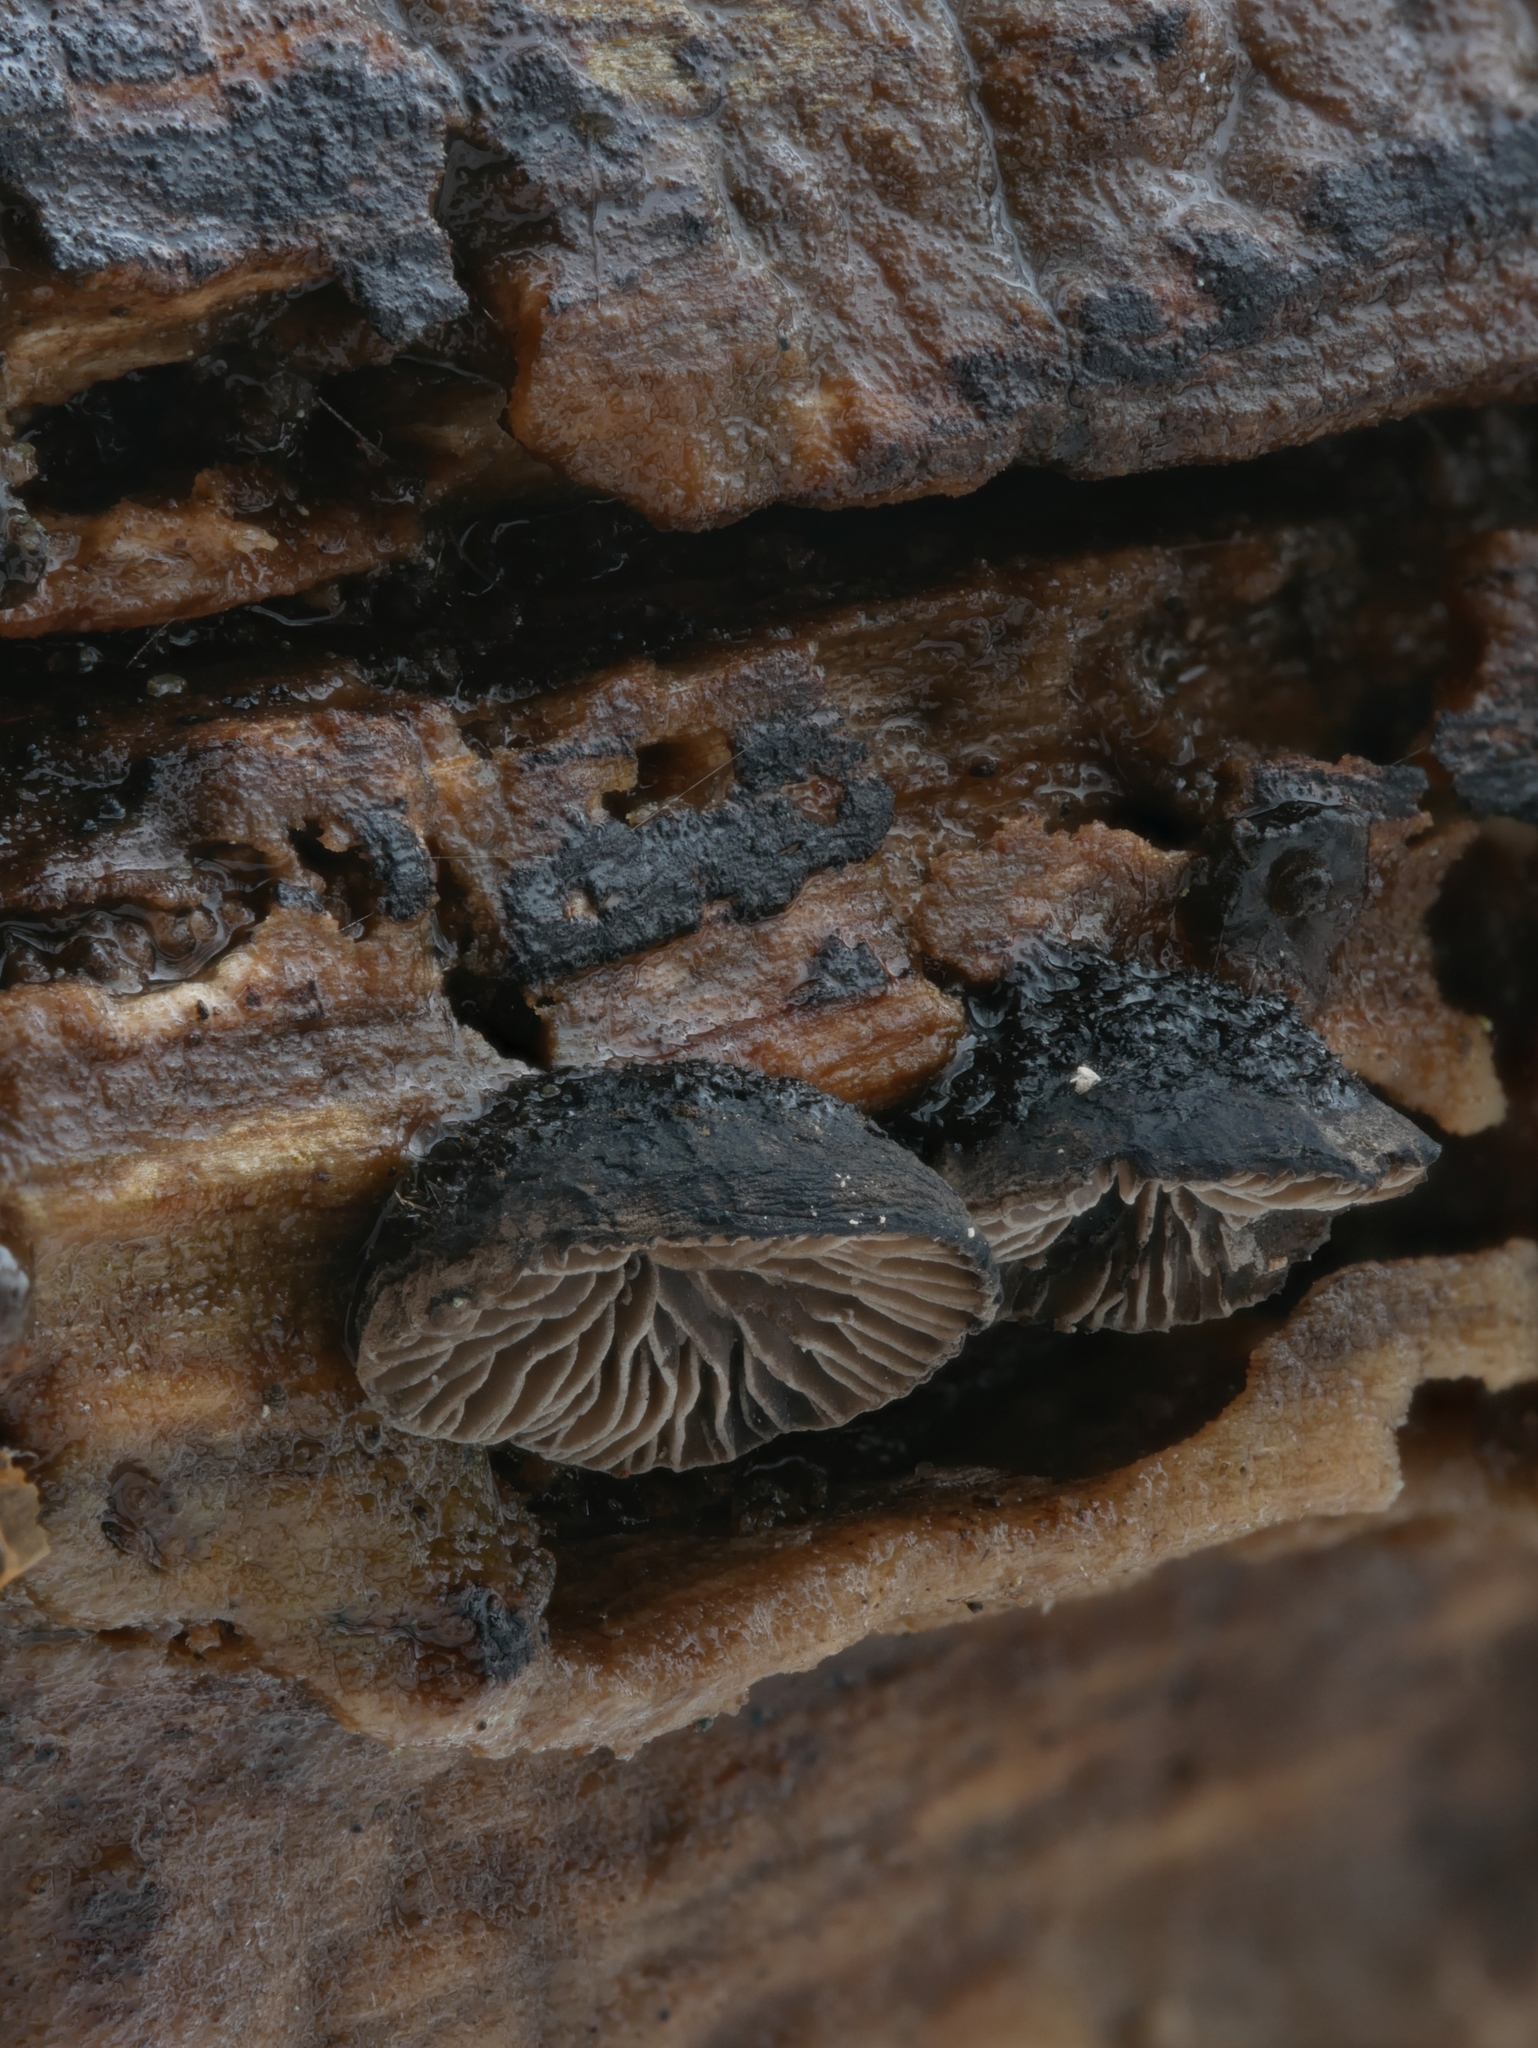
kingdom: Fungi
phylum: Basidiomycota
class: Agaricomycetes
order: Agaricales
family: Pleurotaceae
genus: Resupinatus
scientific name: Resupinatus applicatus
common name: Smoked oysterling
